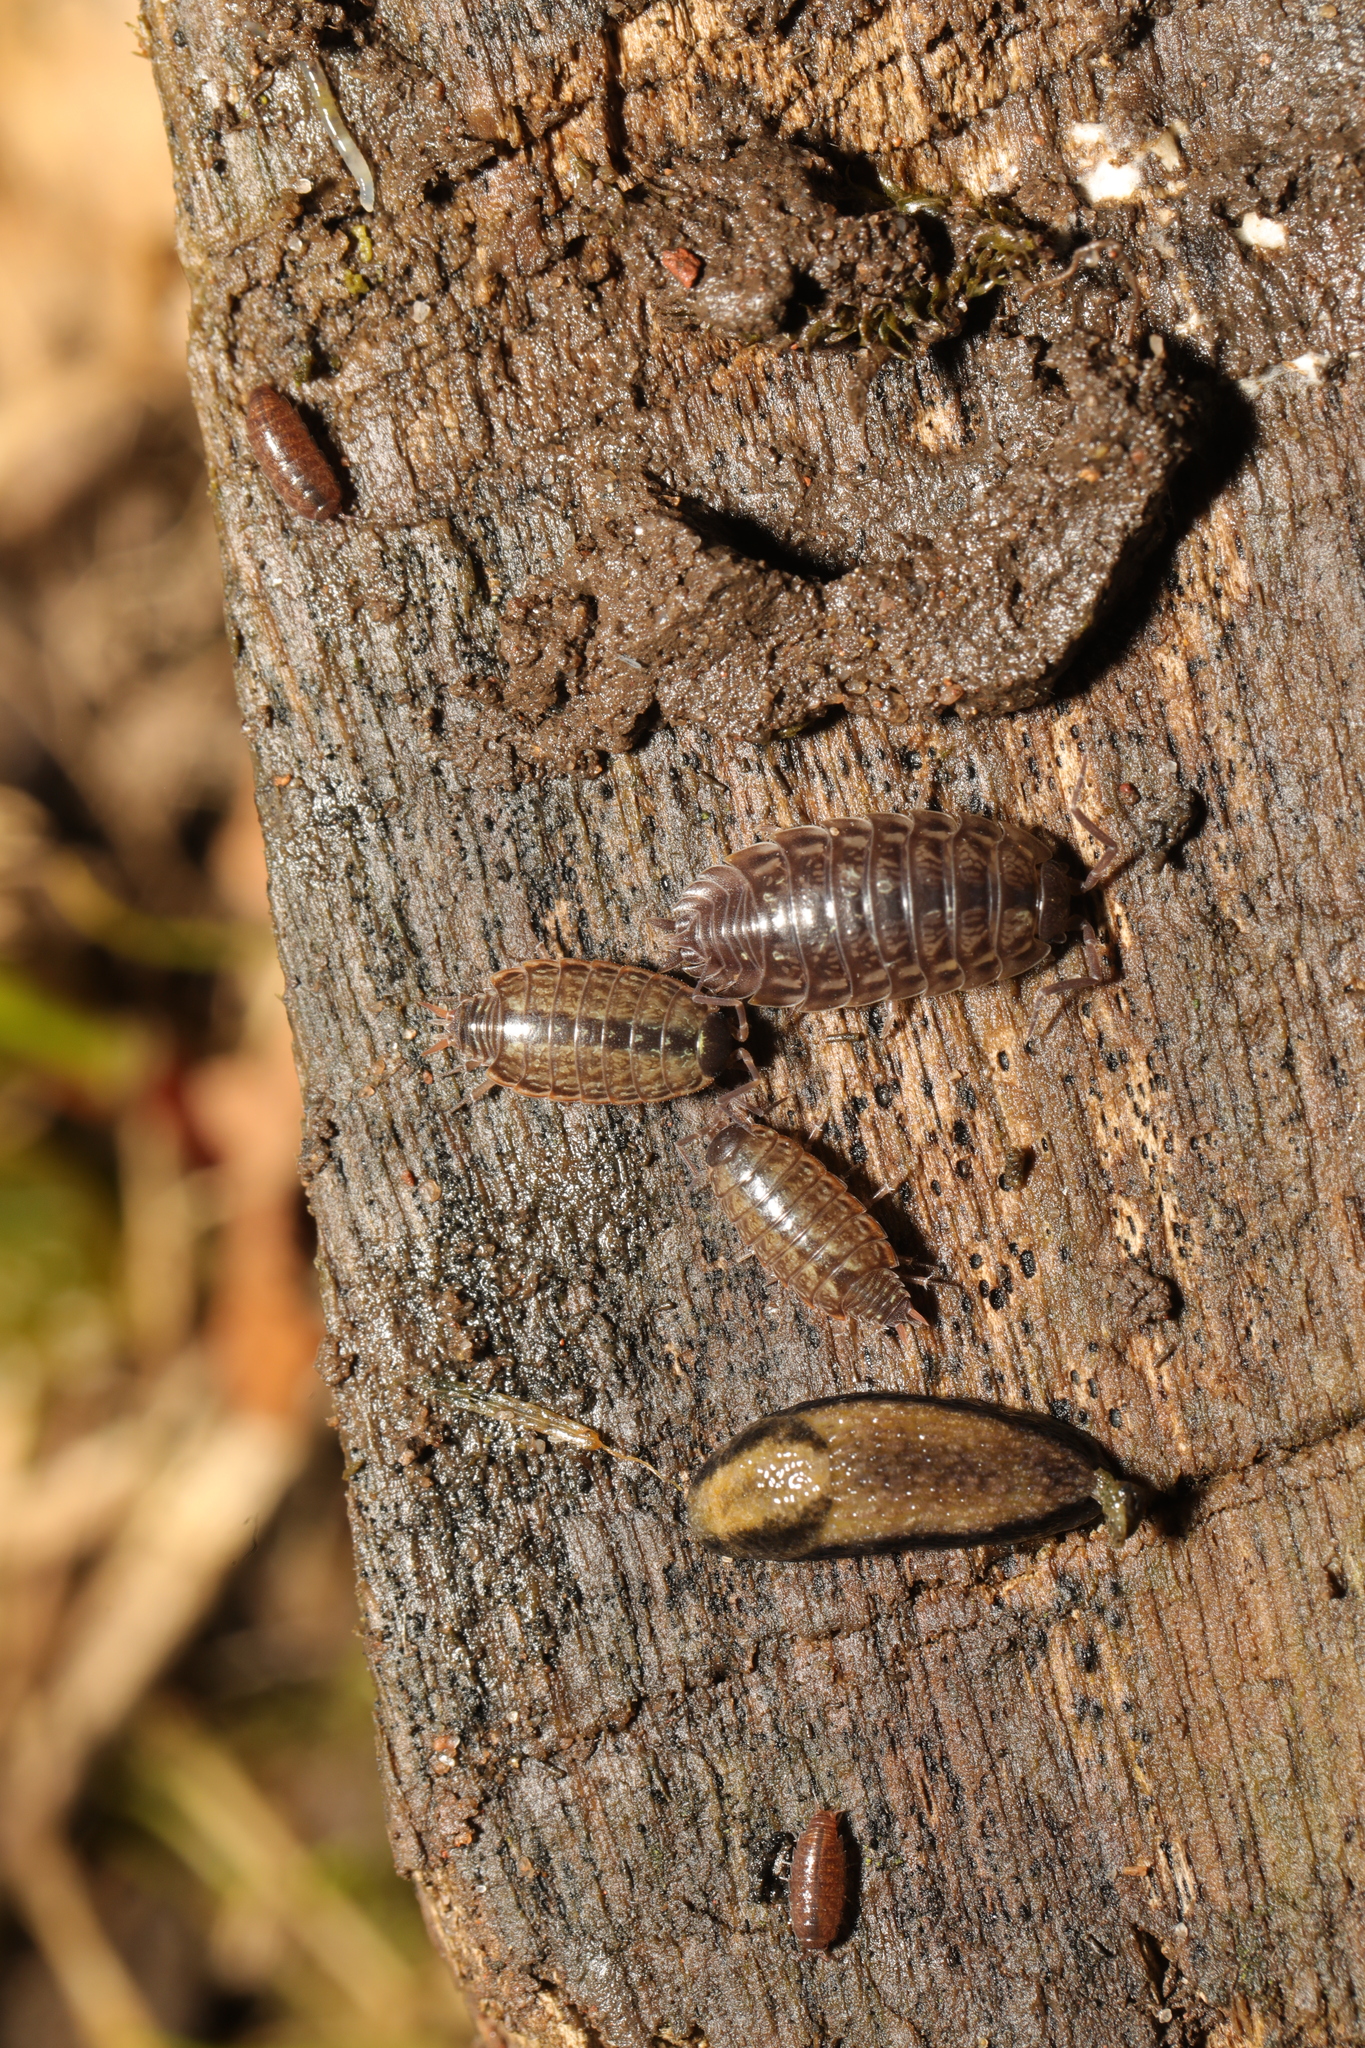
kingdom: Animalia
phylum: Arthropoda
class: Malacostraca
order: Isopoda
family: Philosciidae
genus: Philoscia
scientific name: Philoscia muscorum
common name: Common striped woodlouse
